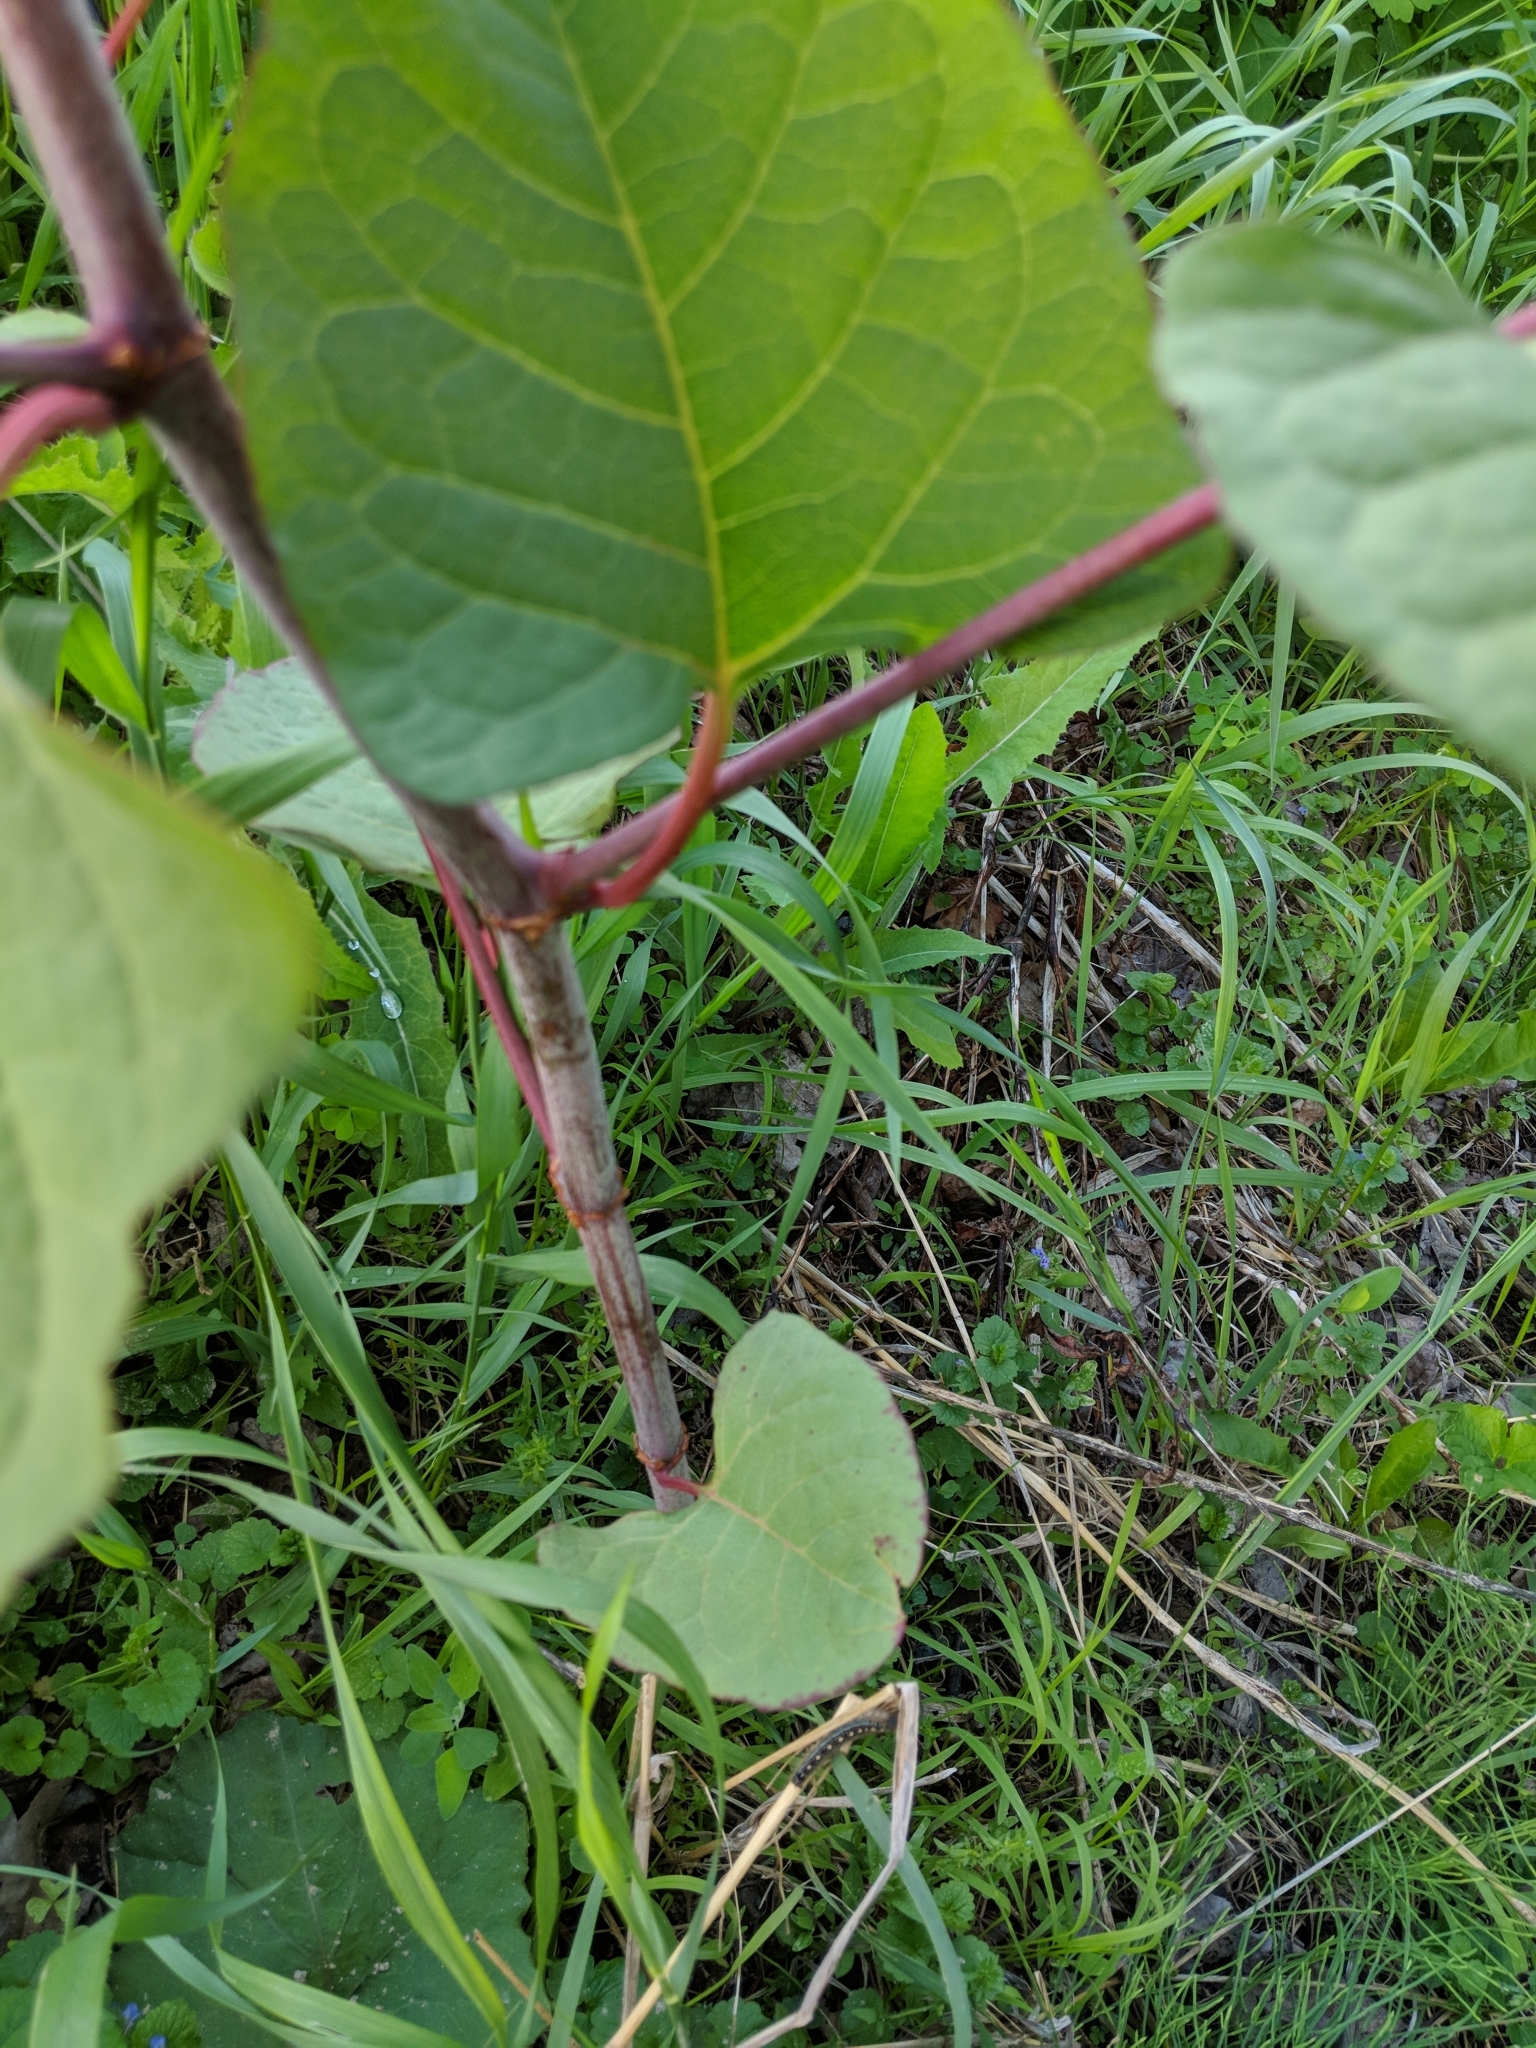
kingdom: Plantae
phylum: Tracheophyta
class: Magnoliopsida
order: Caryophyllales
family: Polygonaceae
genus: Reynoutria
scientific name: Reynoutria japonica
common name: Japanese knotweed
